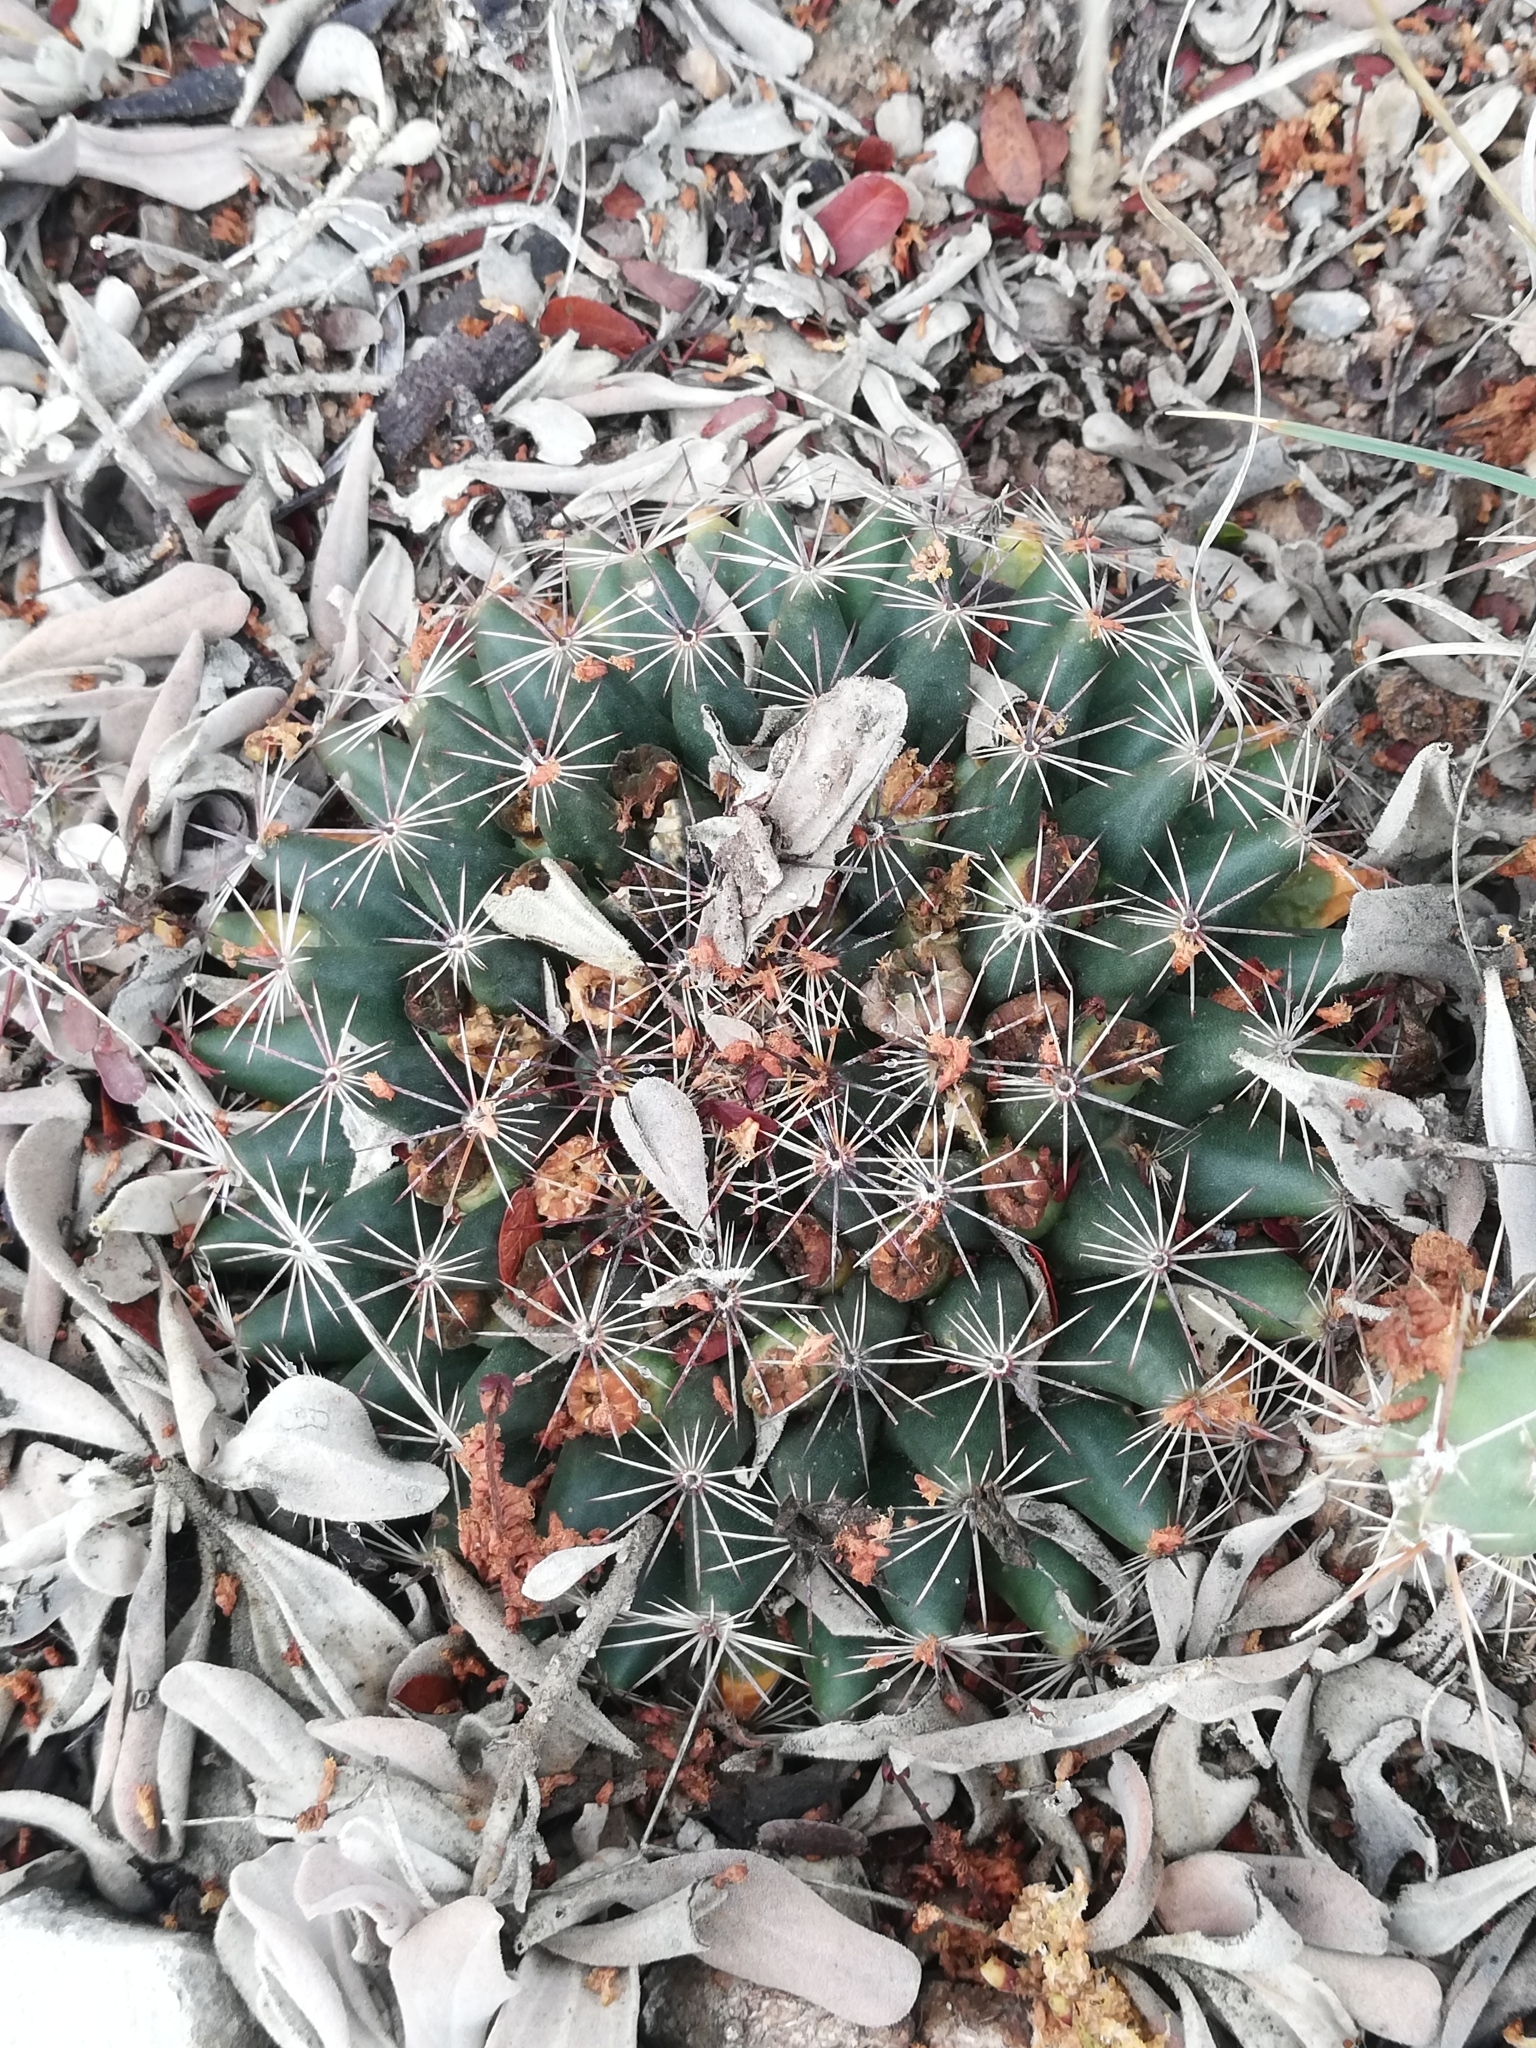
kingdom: Plantae
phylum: Tracheophyta
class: Magnoliopsida
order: Caryophyllales
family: Cactaceae
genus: Mammillaria
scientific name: Mammillaria heyderi
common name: Little nipple cactus
